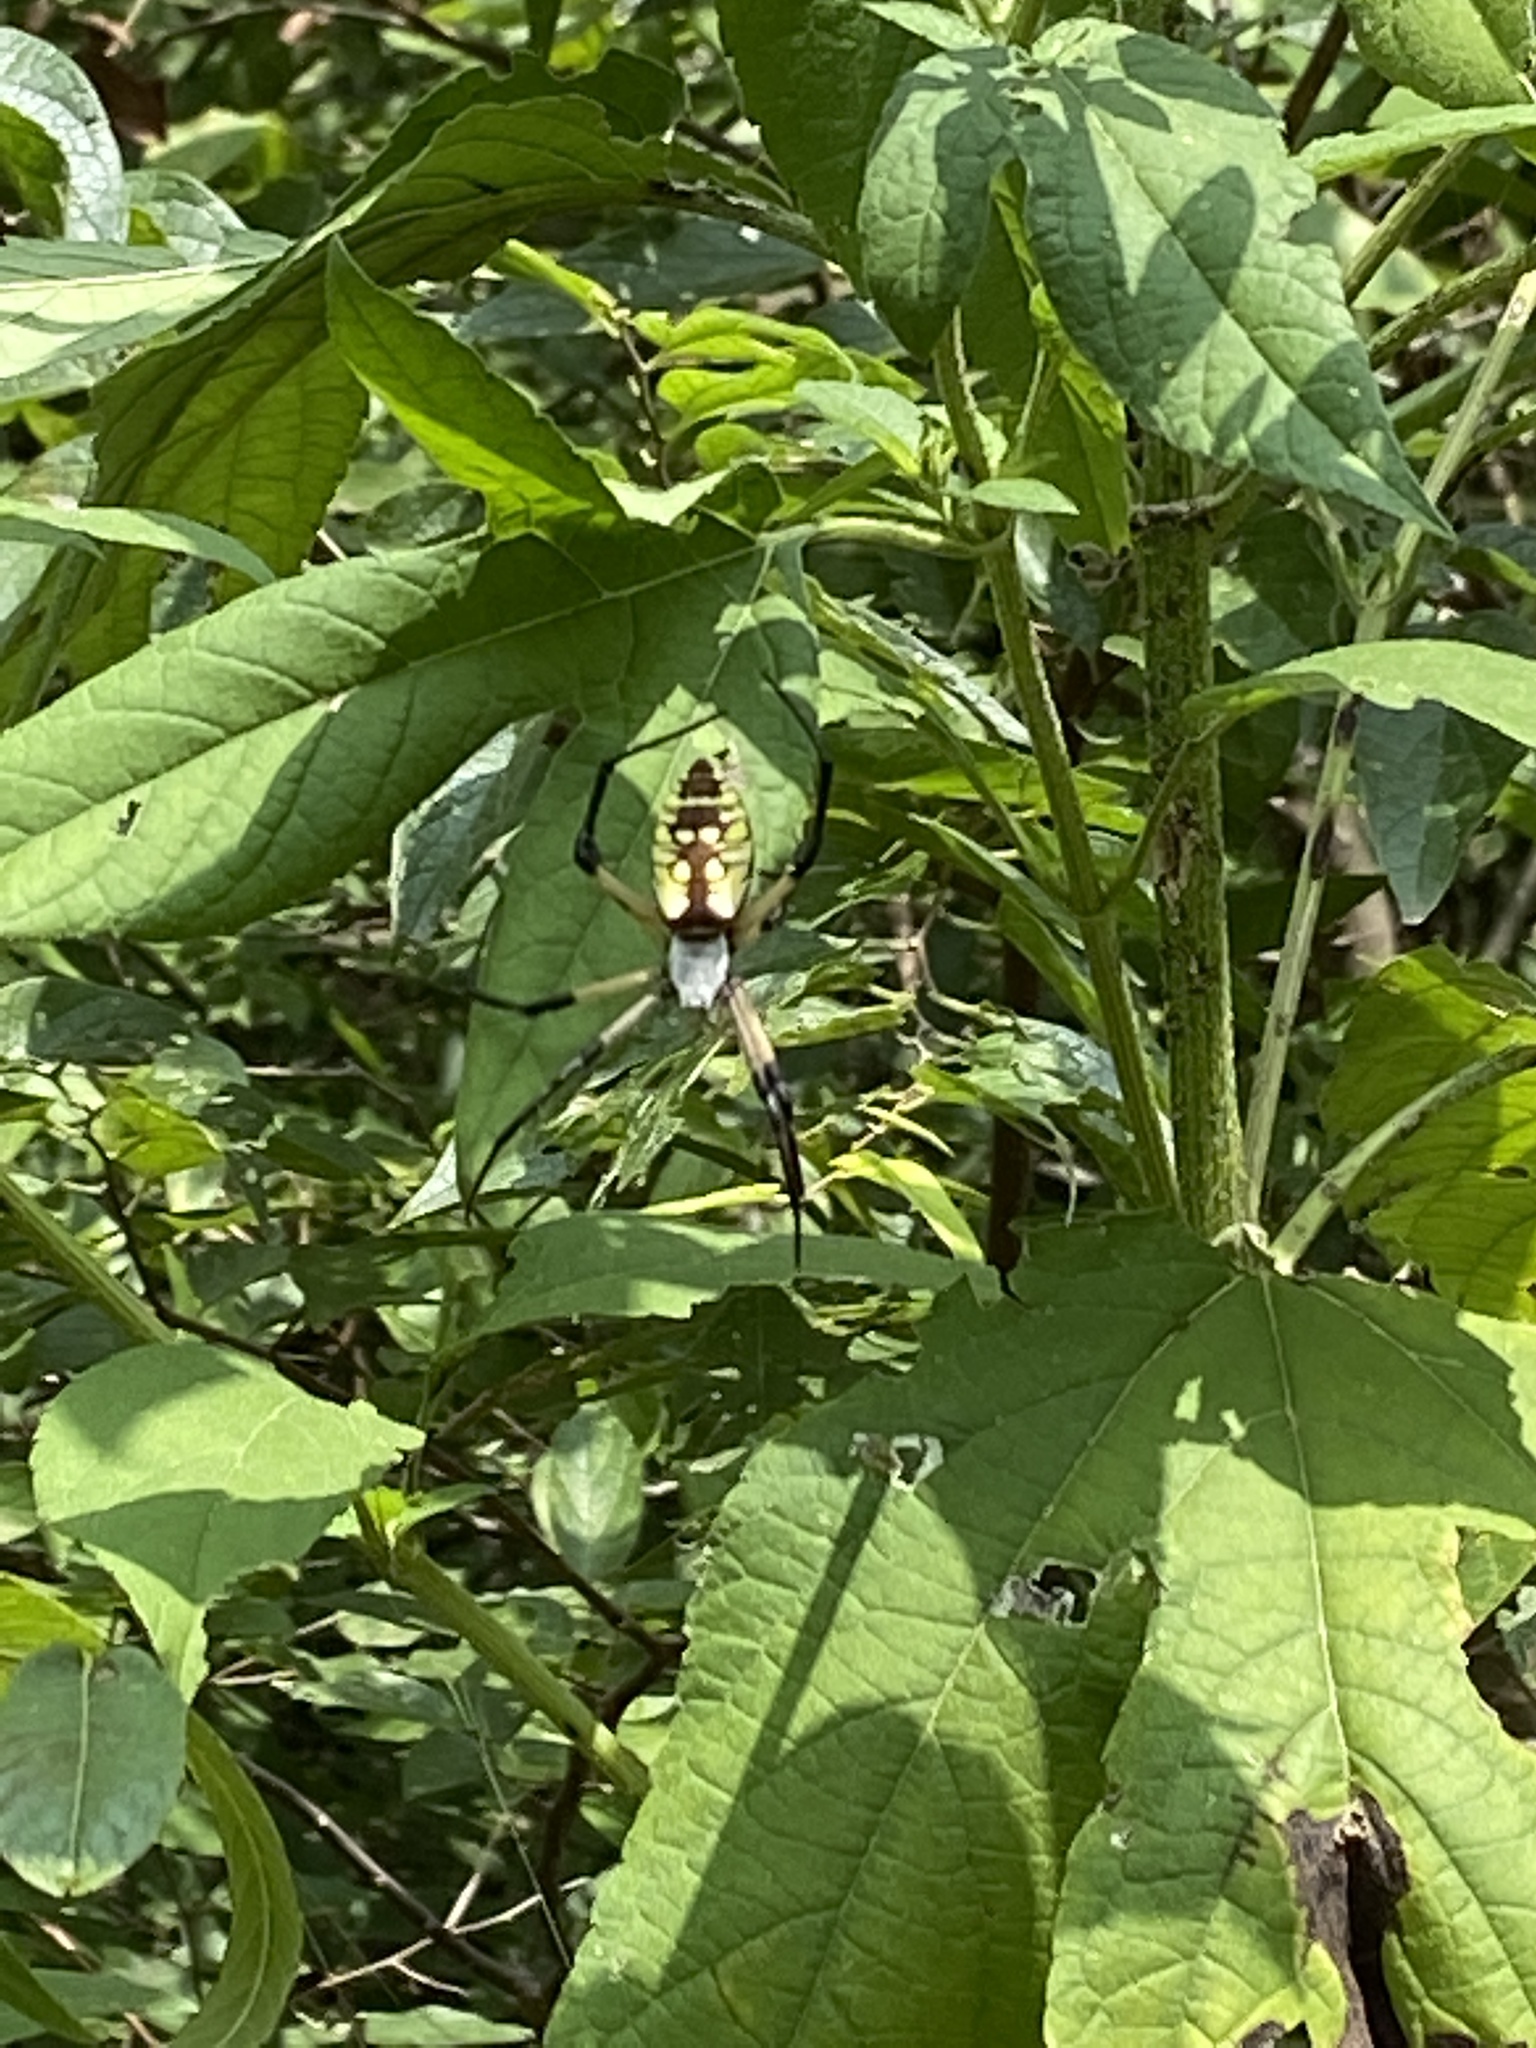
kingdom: Animalia
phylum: Arthropoda
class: Arachnida
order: Araneae
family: Araneidae
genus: Argiope
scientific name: Argiope aurantia
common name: Orb weavers
